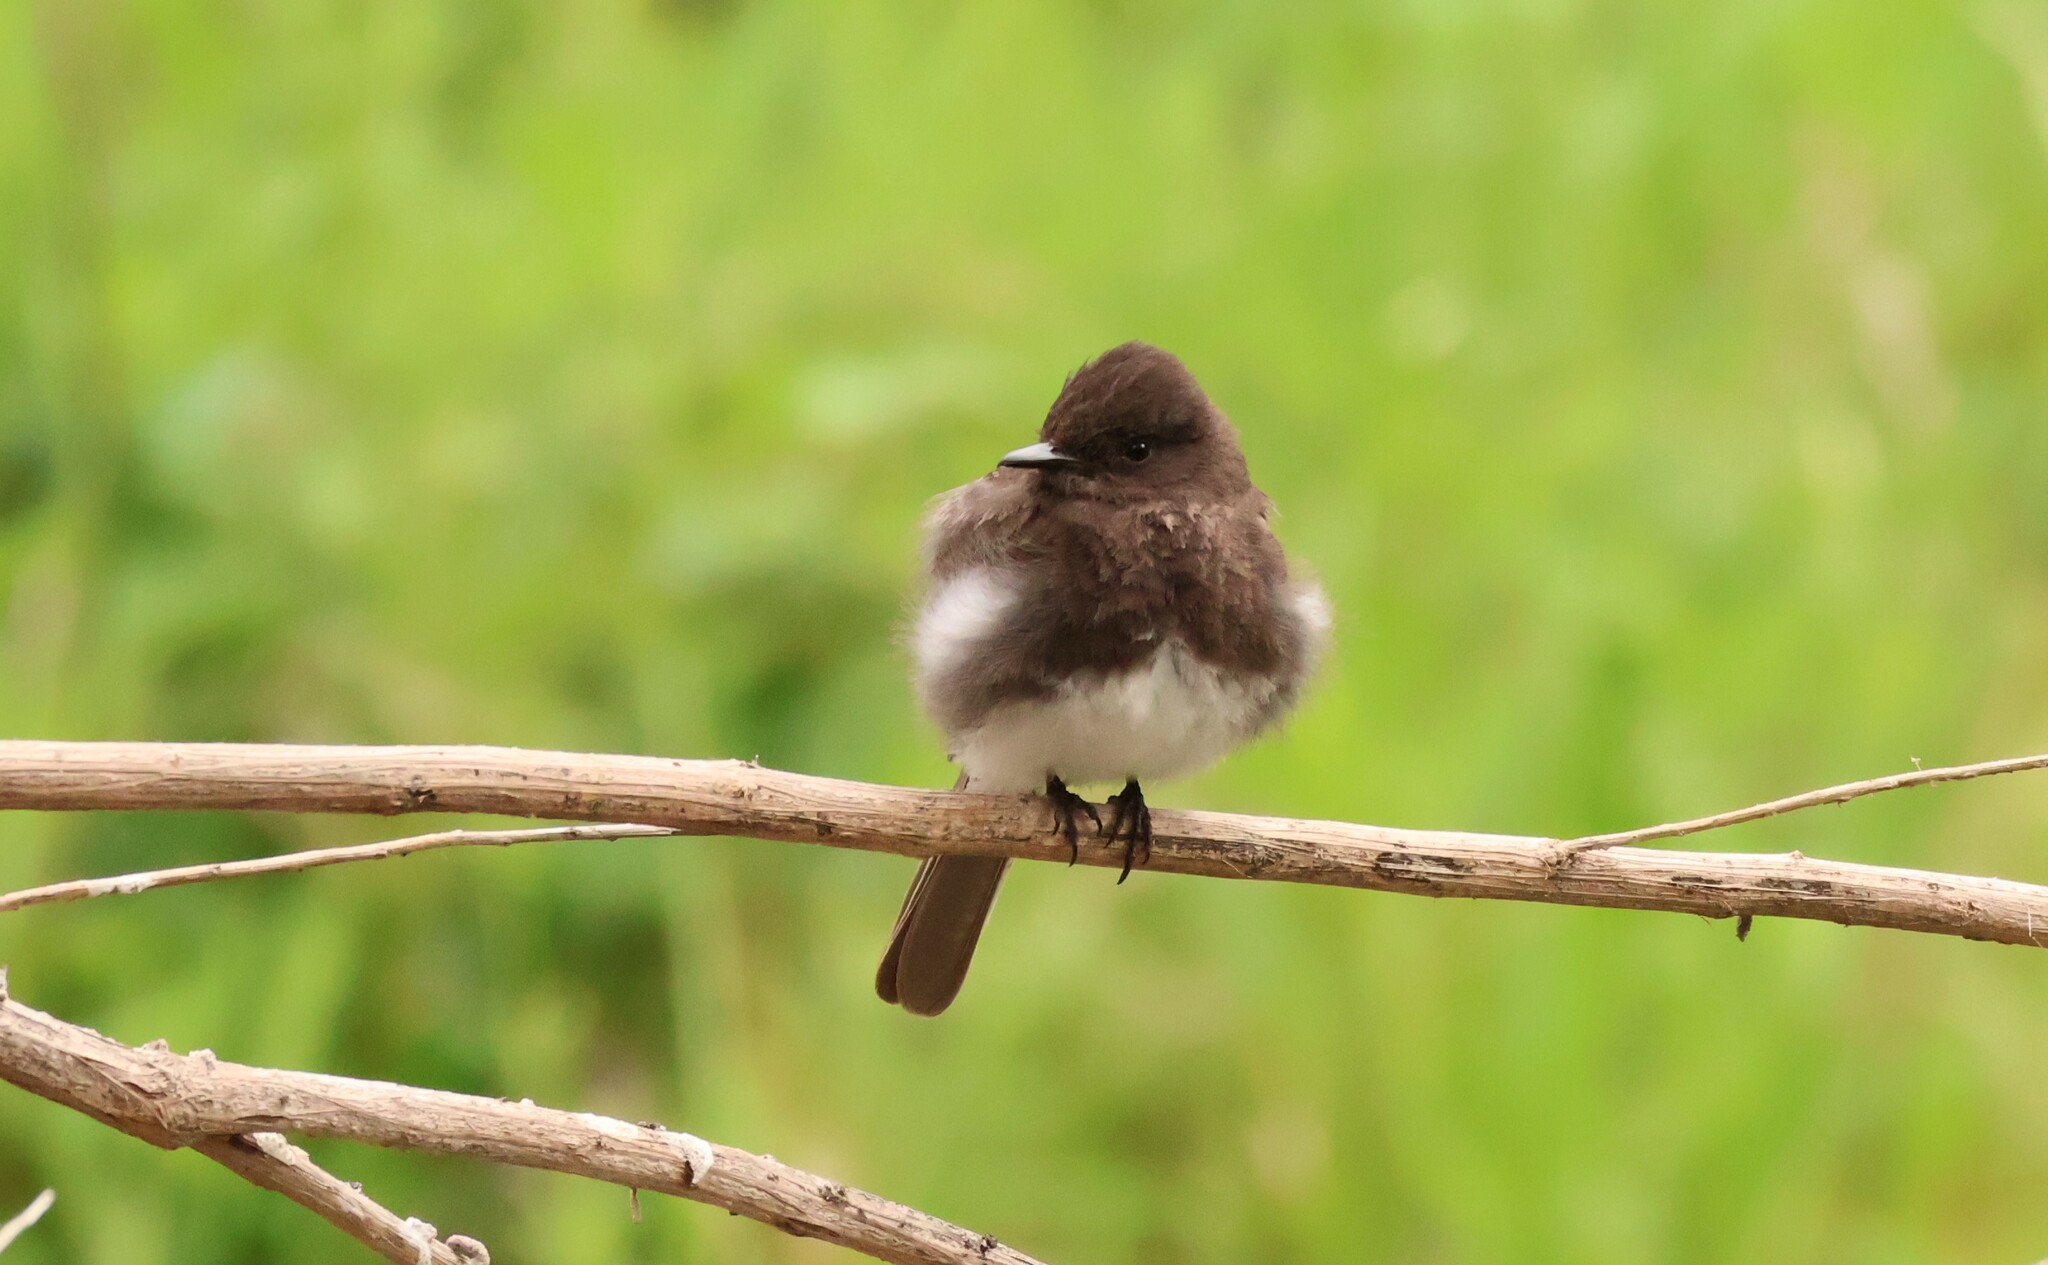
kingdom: Animalia
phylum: Chordata
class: Aves
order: Passeriformes
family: Tyrannidae
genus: Sayornis
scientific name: Sayornis nigricans
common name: Black phoebe
